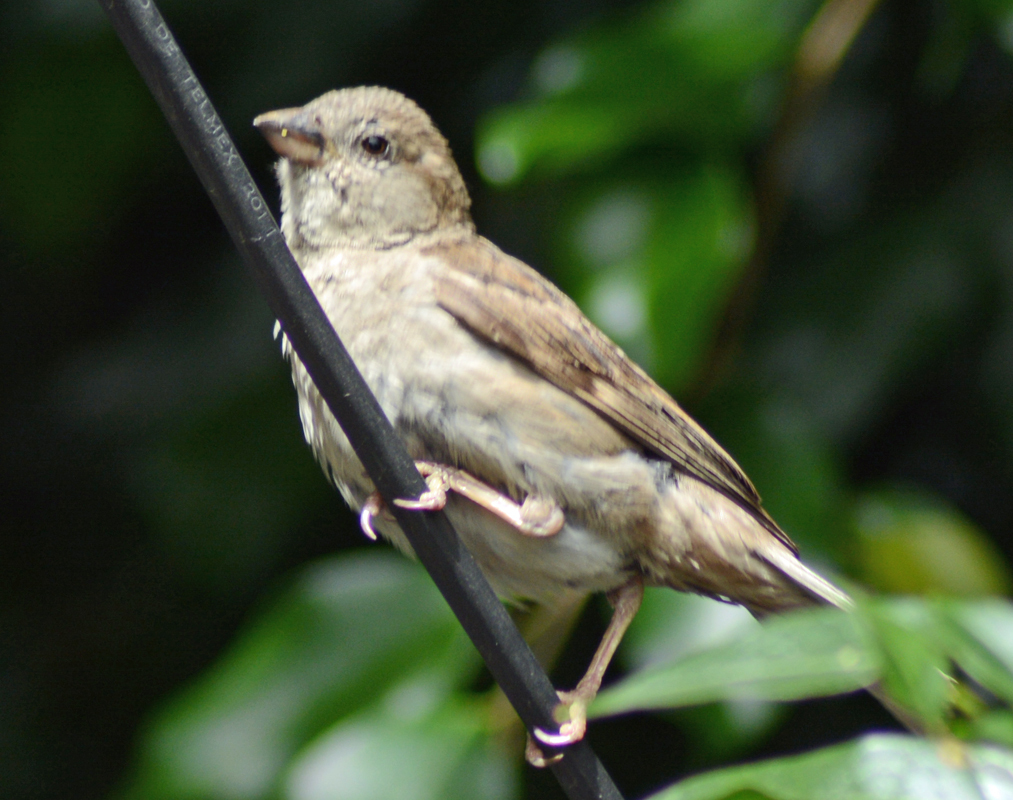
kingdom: Animalia
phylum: Chordata
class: Aves
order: Passeriformes
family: Passeridae
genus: Passer
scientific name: Passer domesticus
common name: House sparrow
